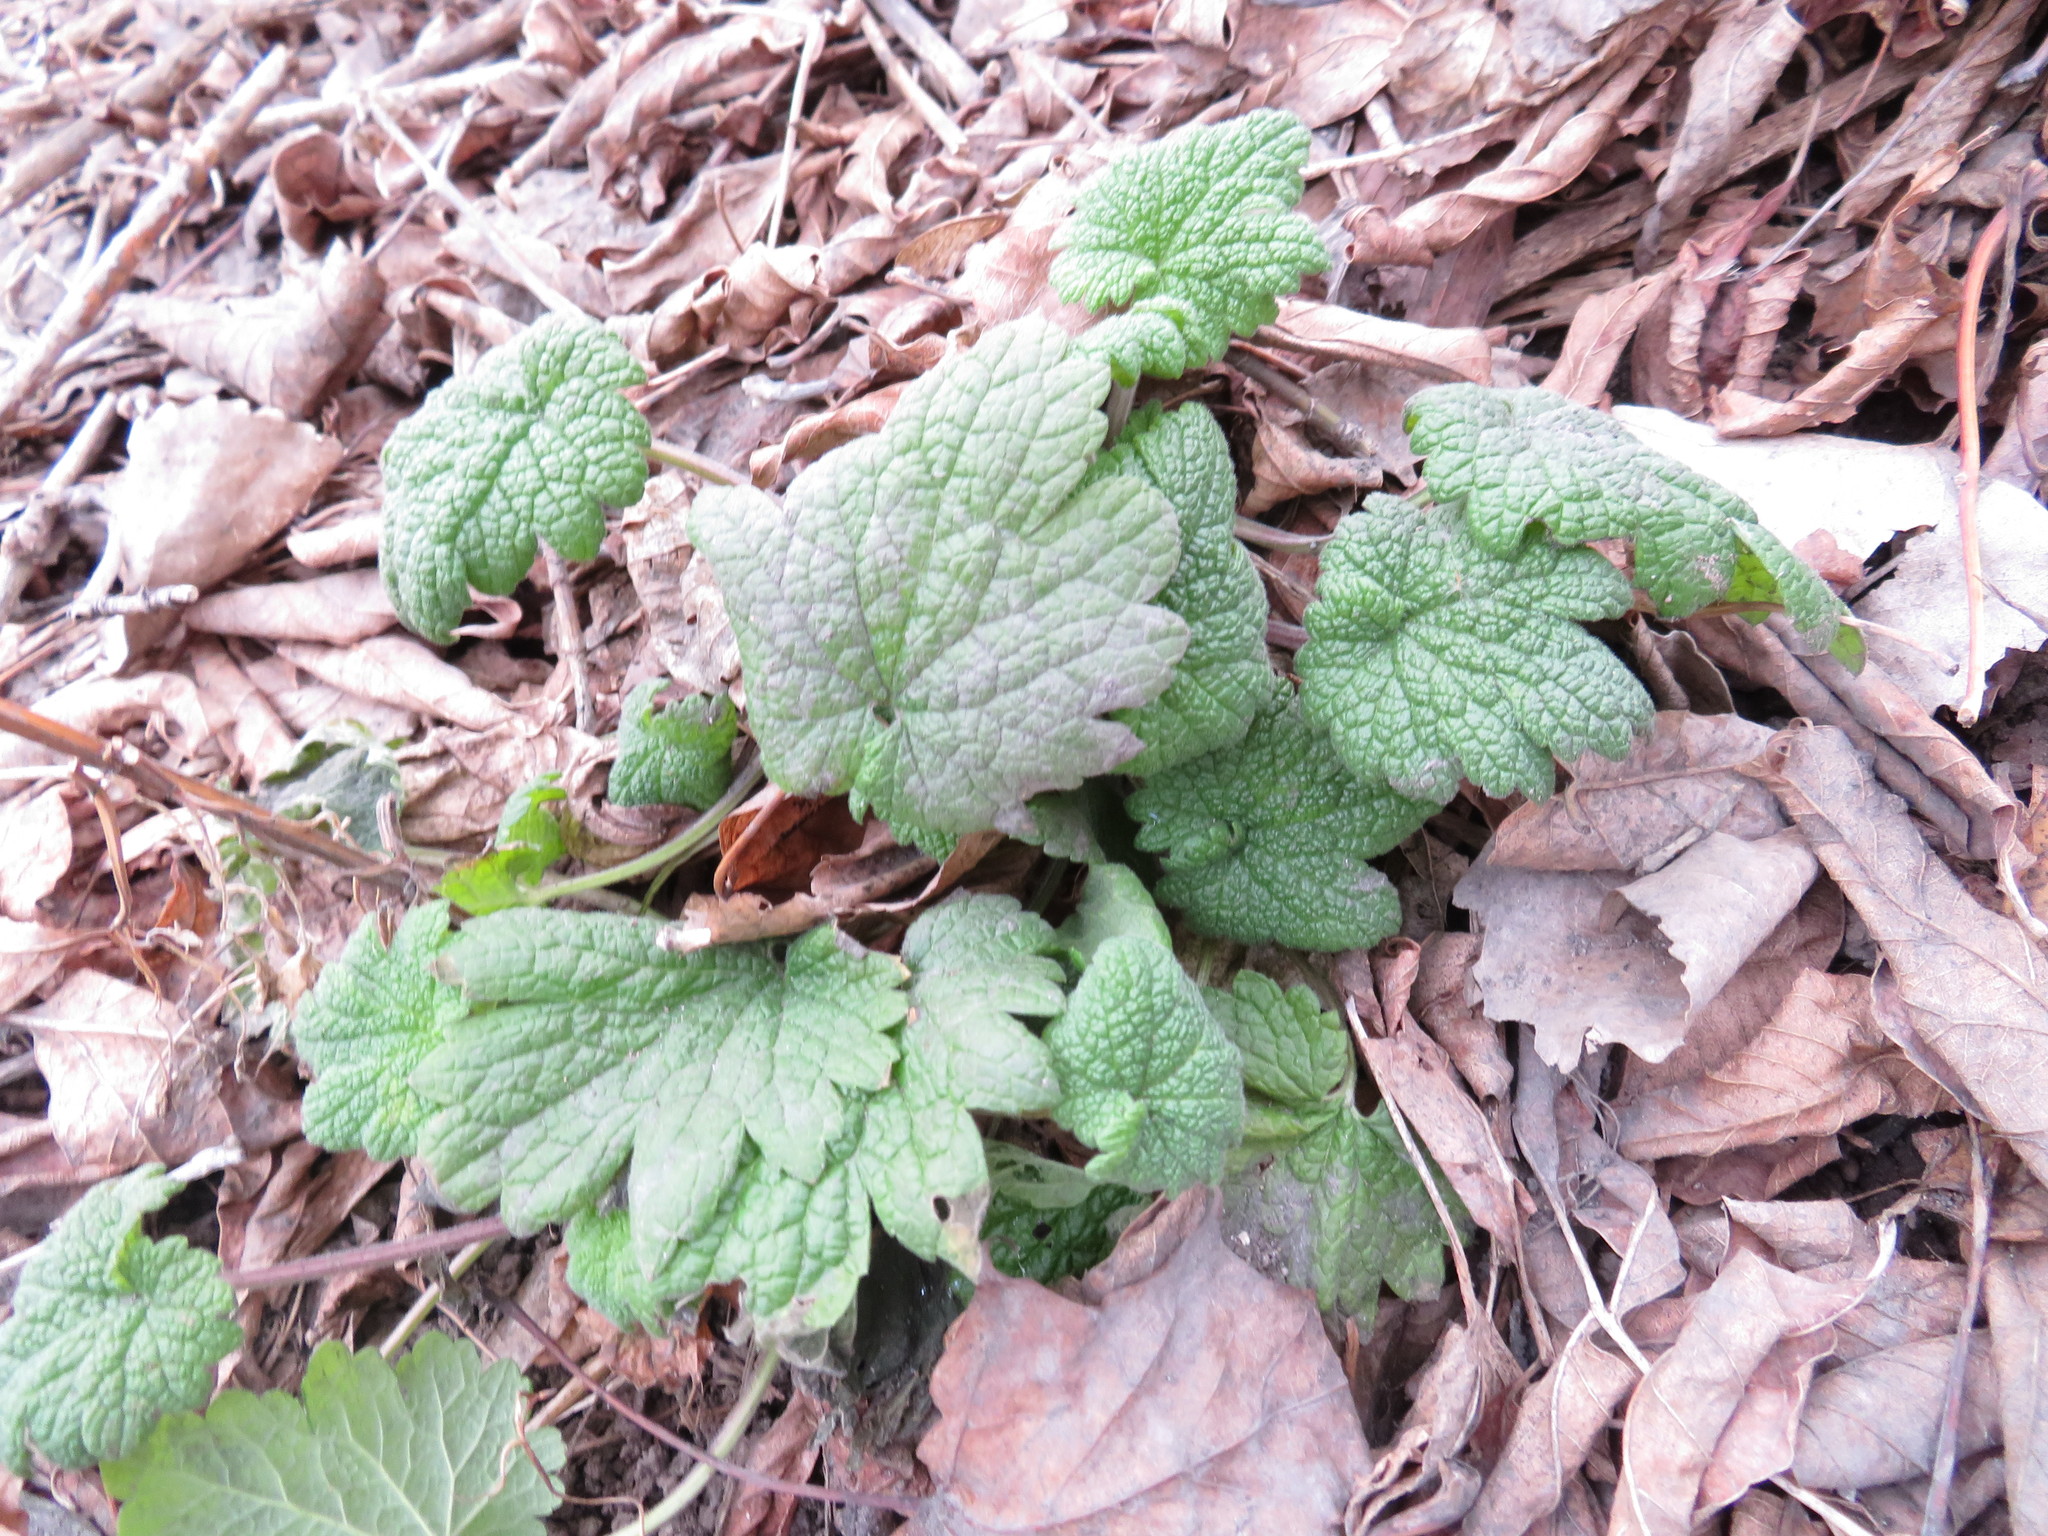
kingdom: Plantae
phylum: Tracheophyta
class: Magnoliopsida
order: Lamiales
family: Lamiaceae
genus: Leonurus
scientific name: Leonurus cardiaca
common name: Motherwort
